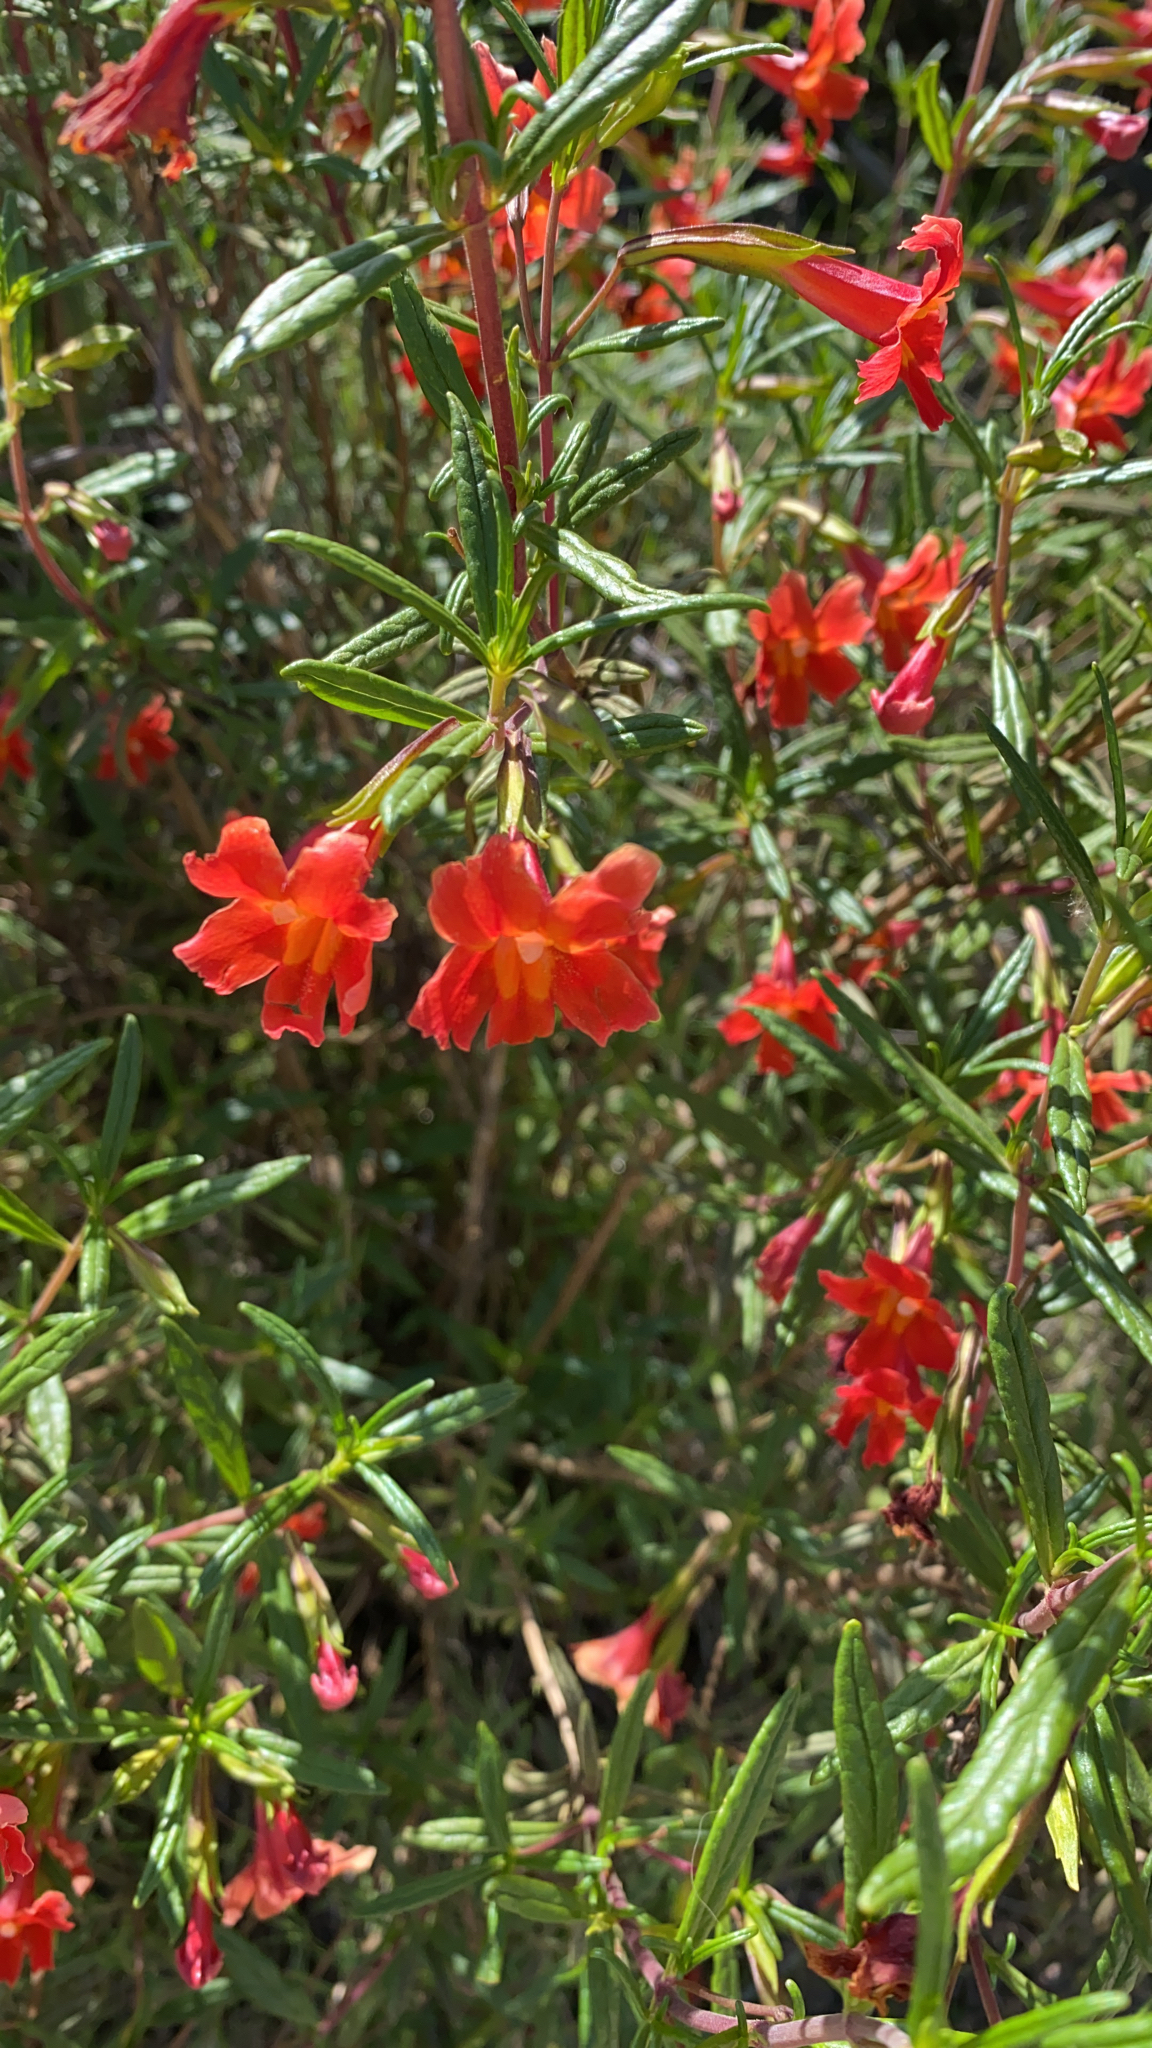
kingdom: Plantae
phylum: Tracheophyta
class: Magnoliopsida
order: Lamiales
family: Phrymaceae
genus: Diplacus
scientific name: Diplacus puniceus
